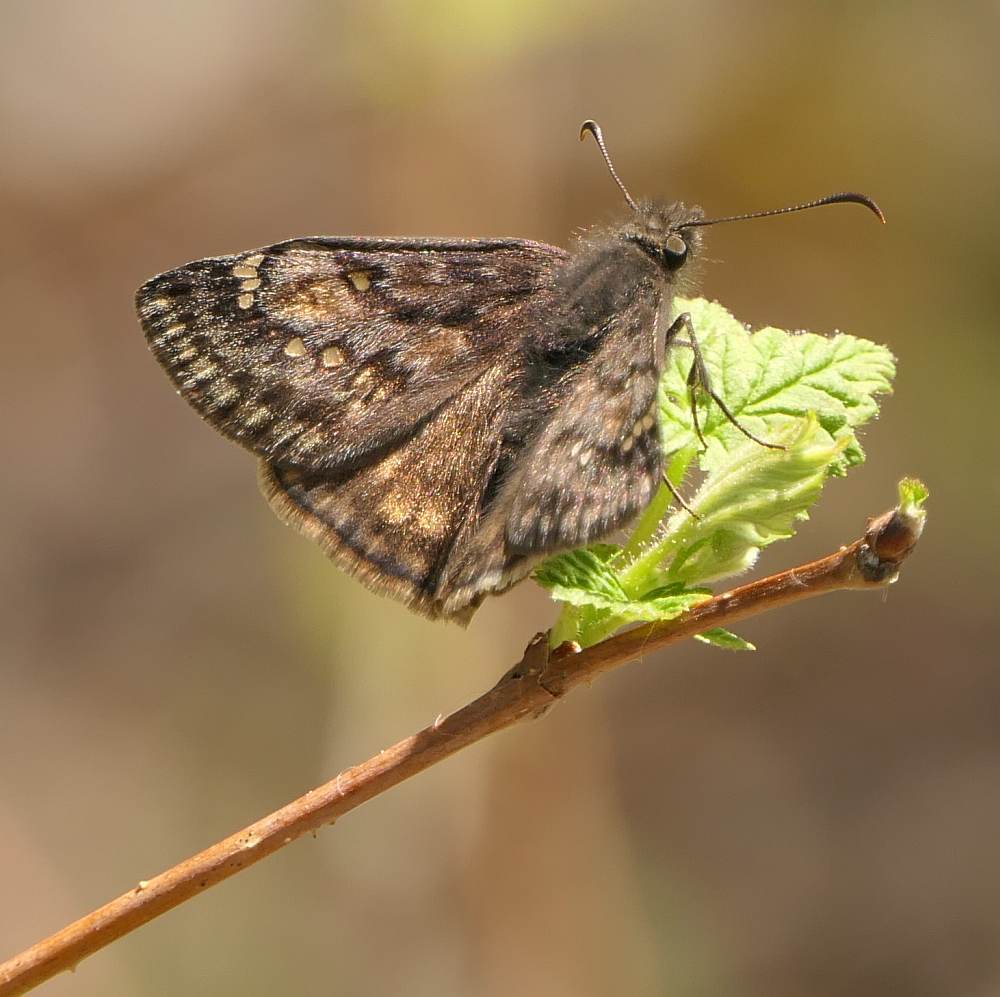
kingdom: Animalia
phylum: Arthropoda
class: Insecta
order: Lepidoptera
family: Hesperiidae
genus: Erynnis
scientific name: Erynnis juvenalis
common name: Juvenal's duskywing
